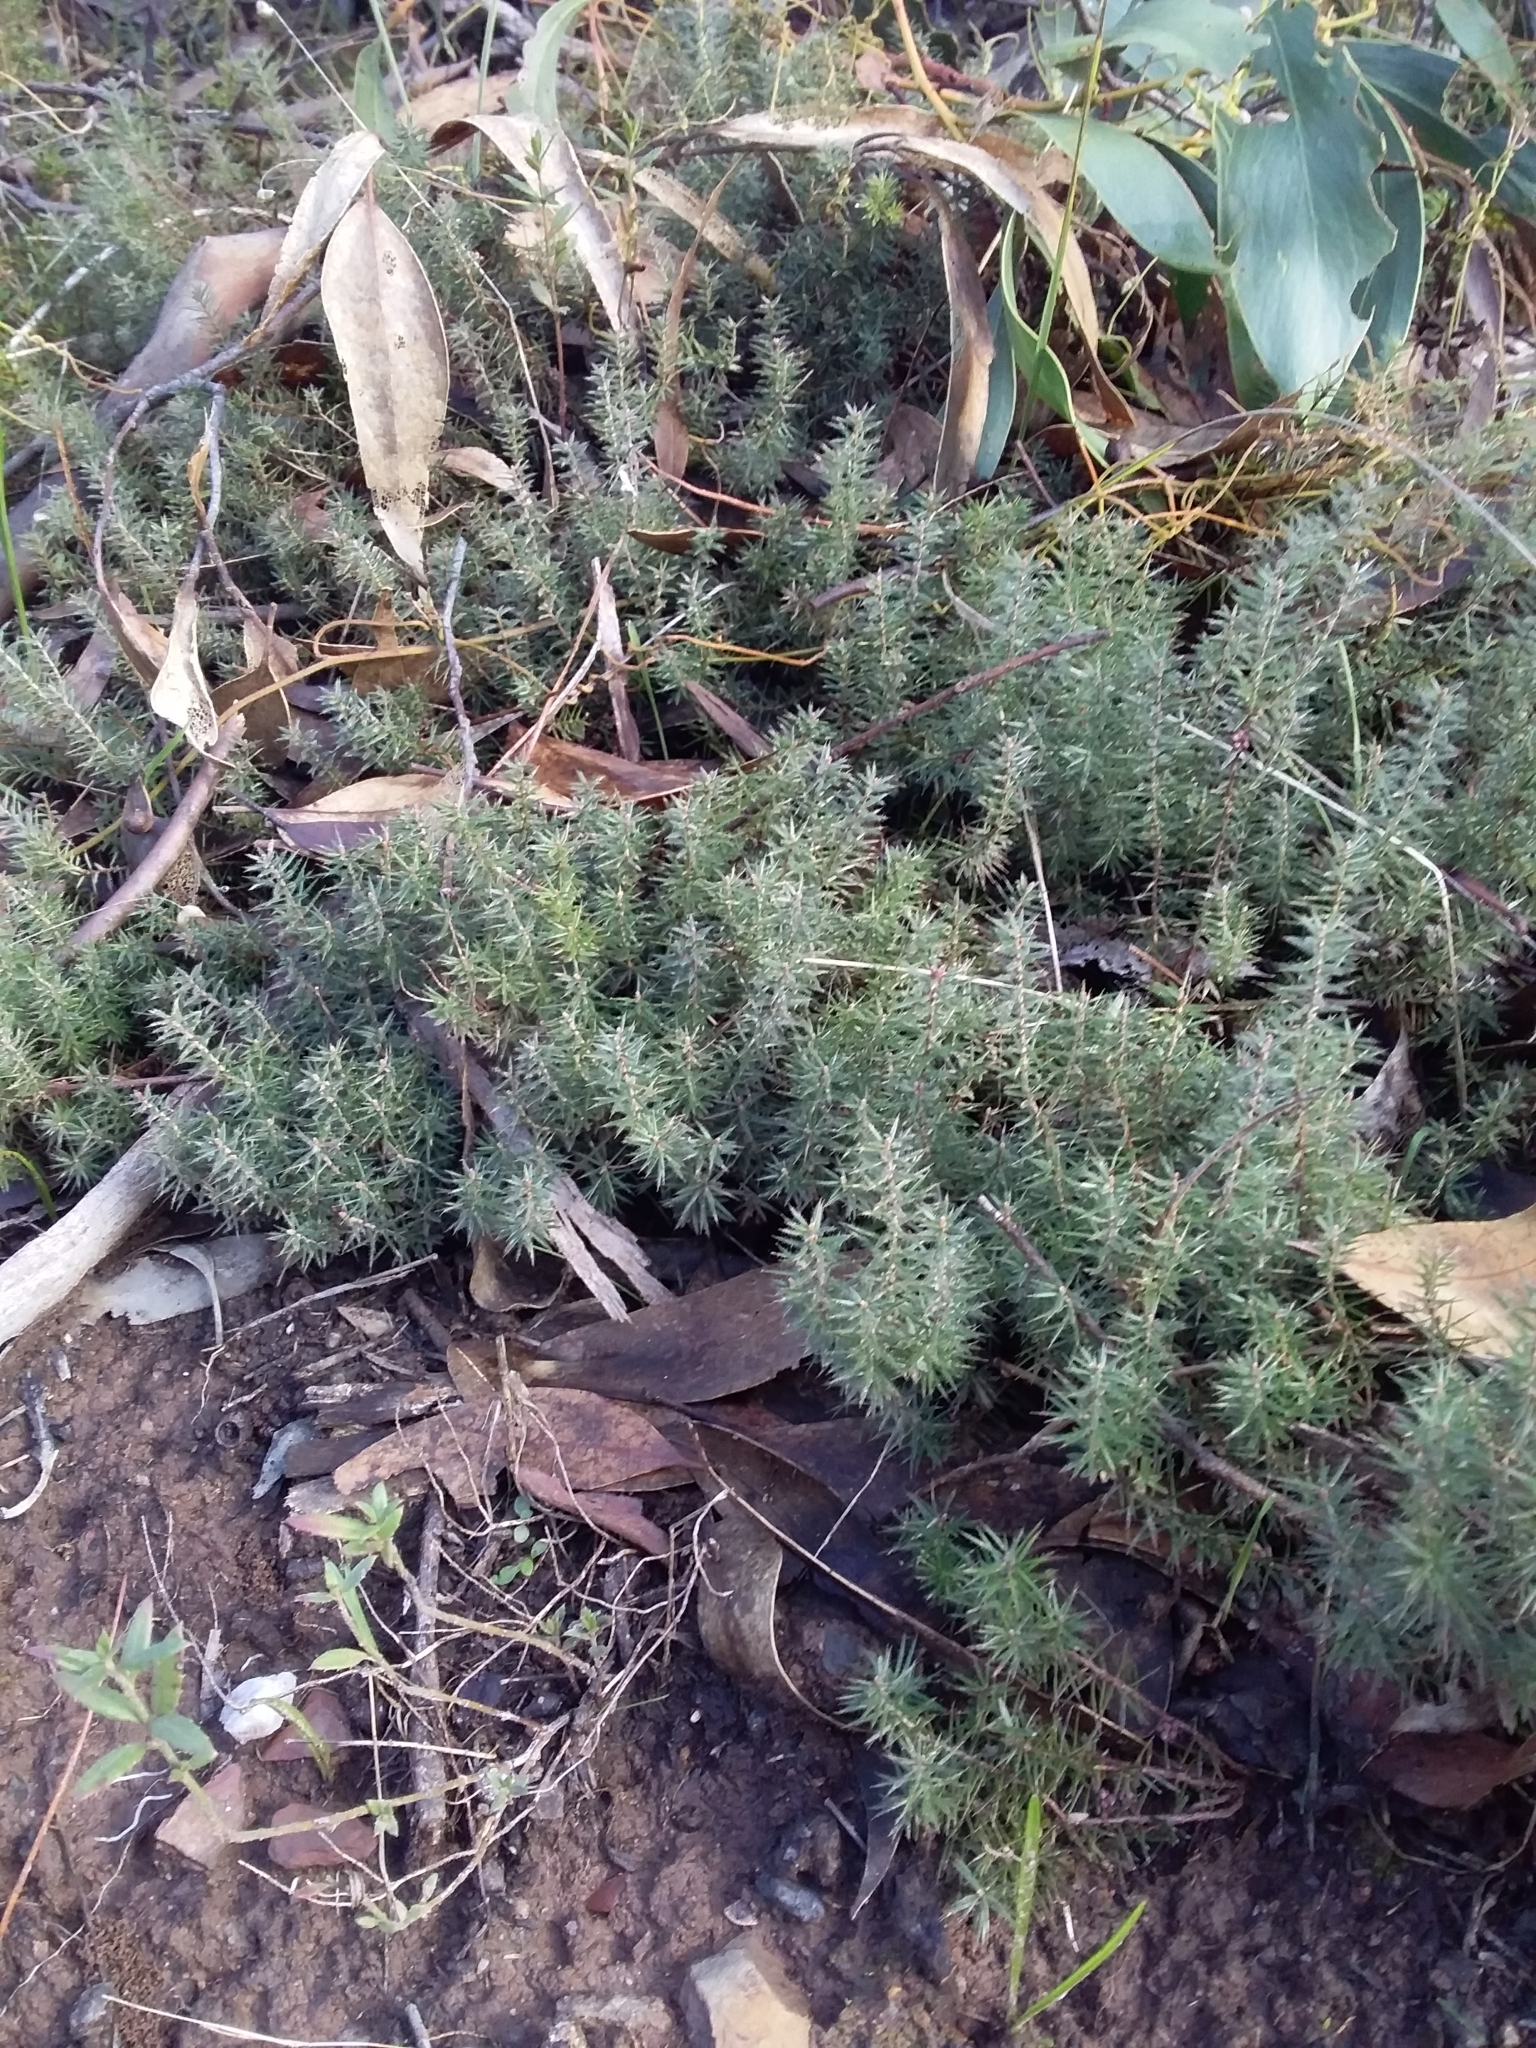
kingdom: Plantae
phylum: Tracheophyta
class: Magnoliopsida
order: Ericales
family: Ericaceae
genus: Acrotriche
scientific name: Acrotriche serrulata
